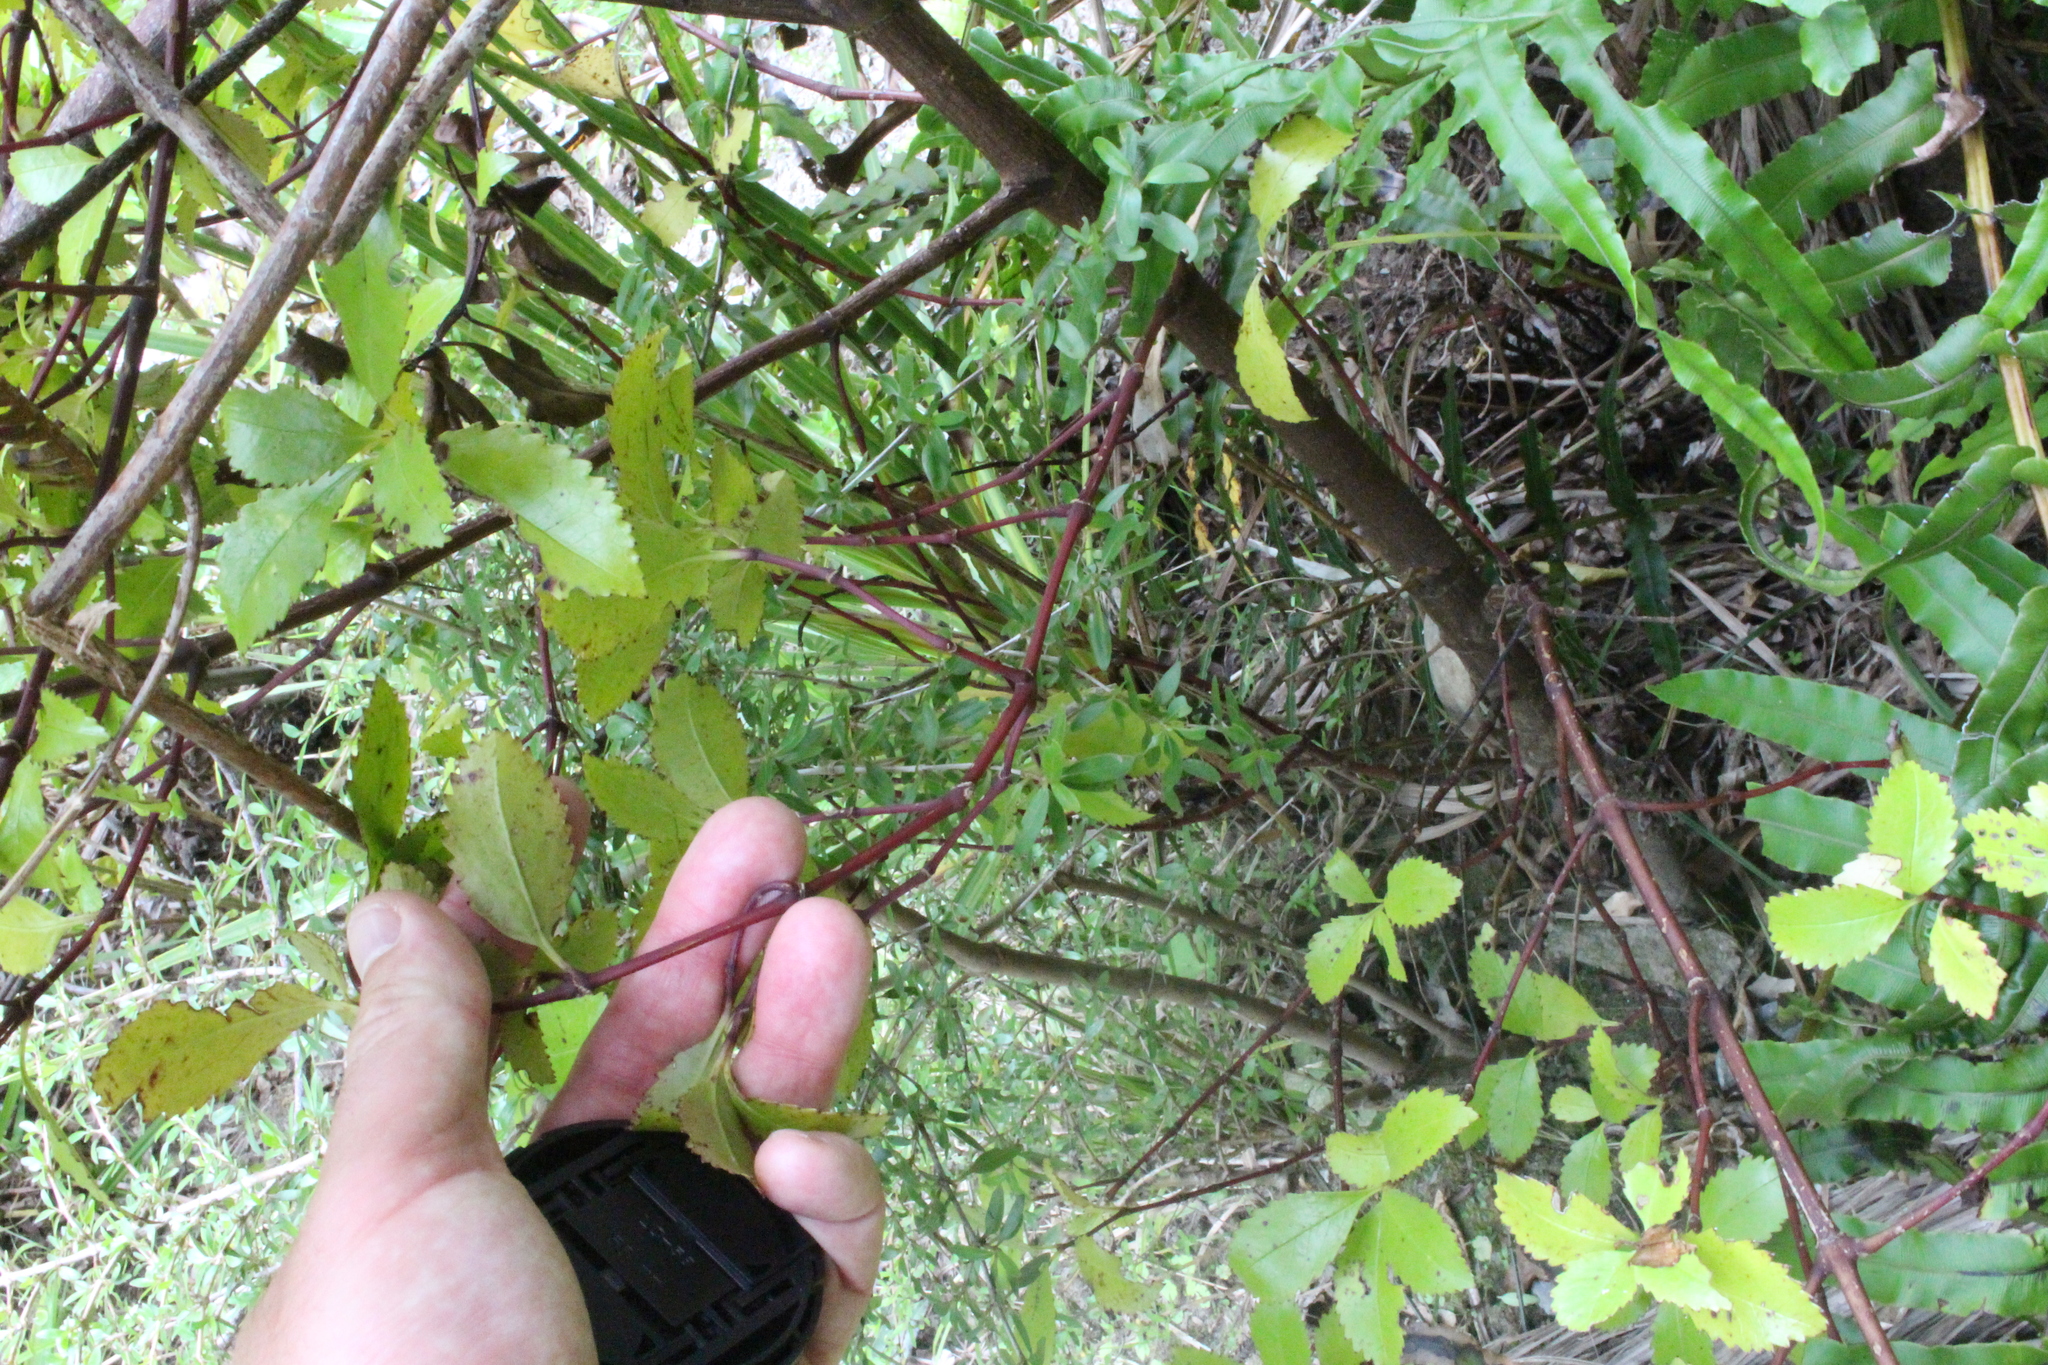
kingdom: Plantae
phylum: Tracheophyta
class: Magnoliopsida
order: Chloranthales
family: Chloranthaceae
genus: Ascarina
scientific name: Ascarina lucida
